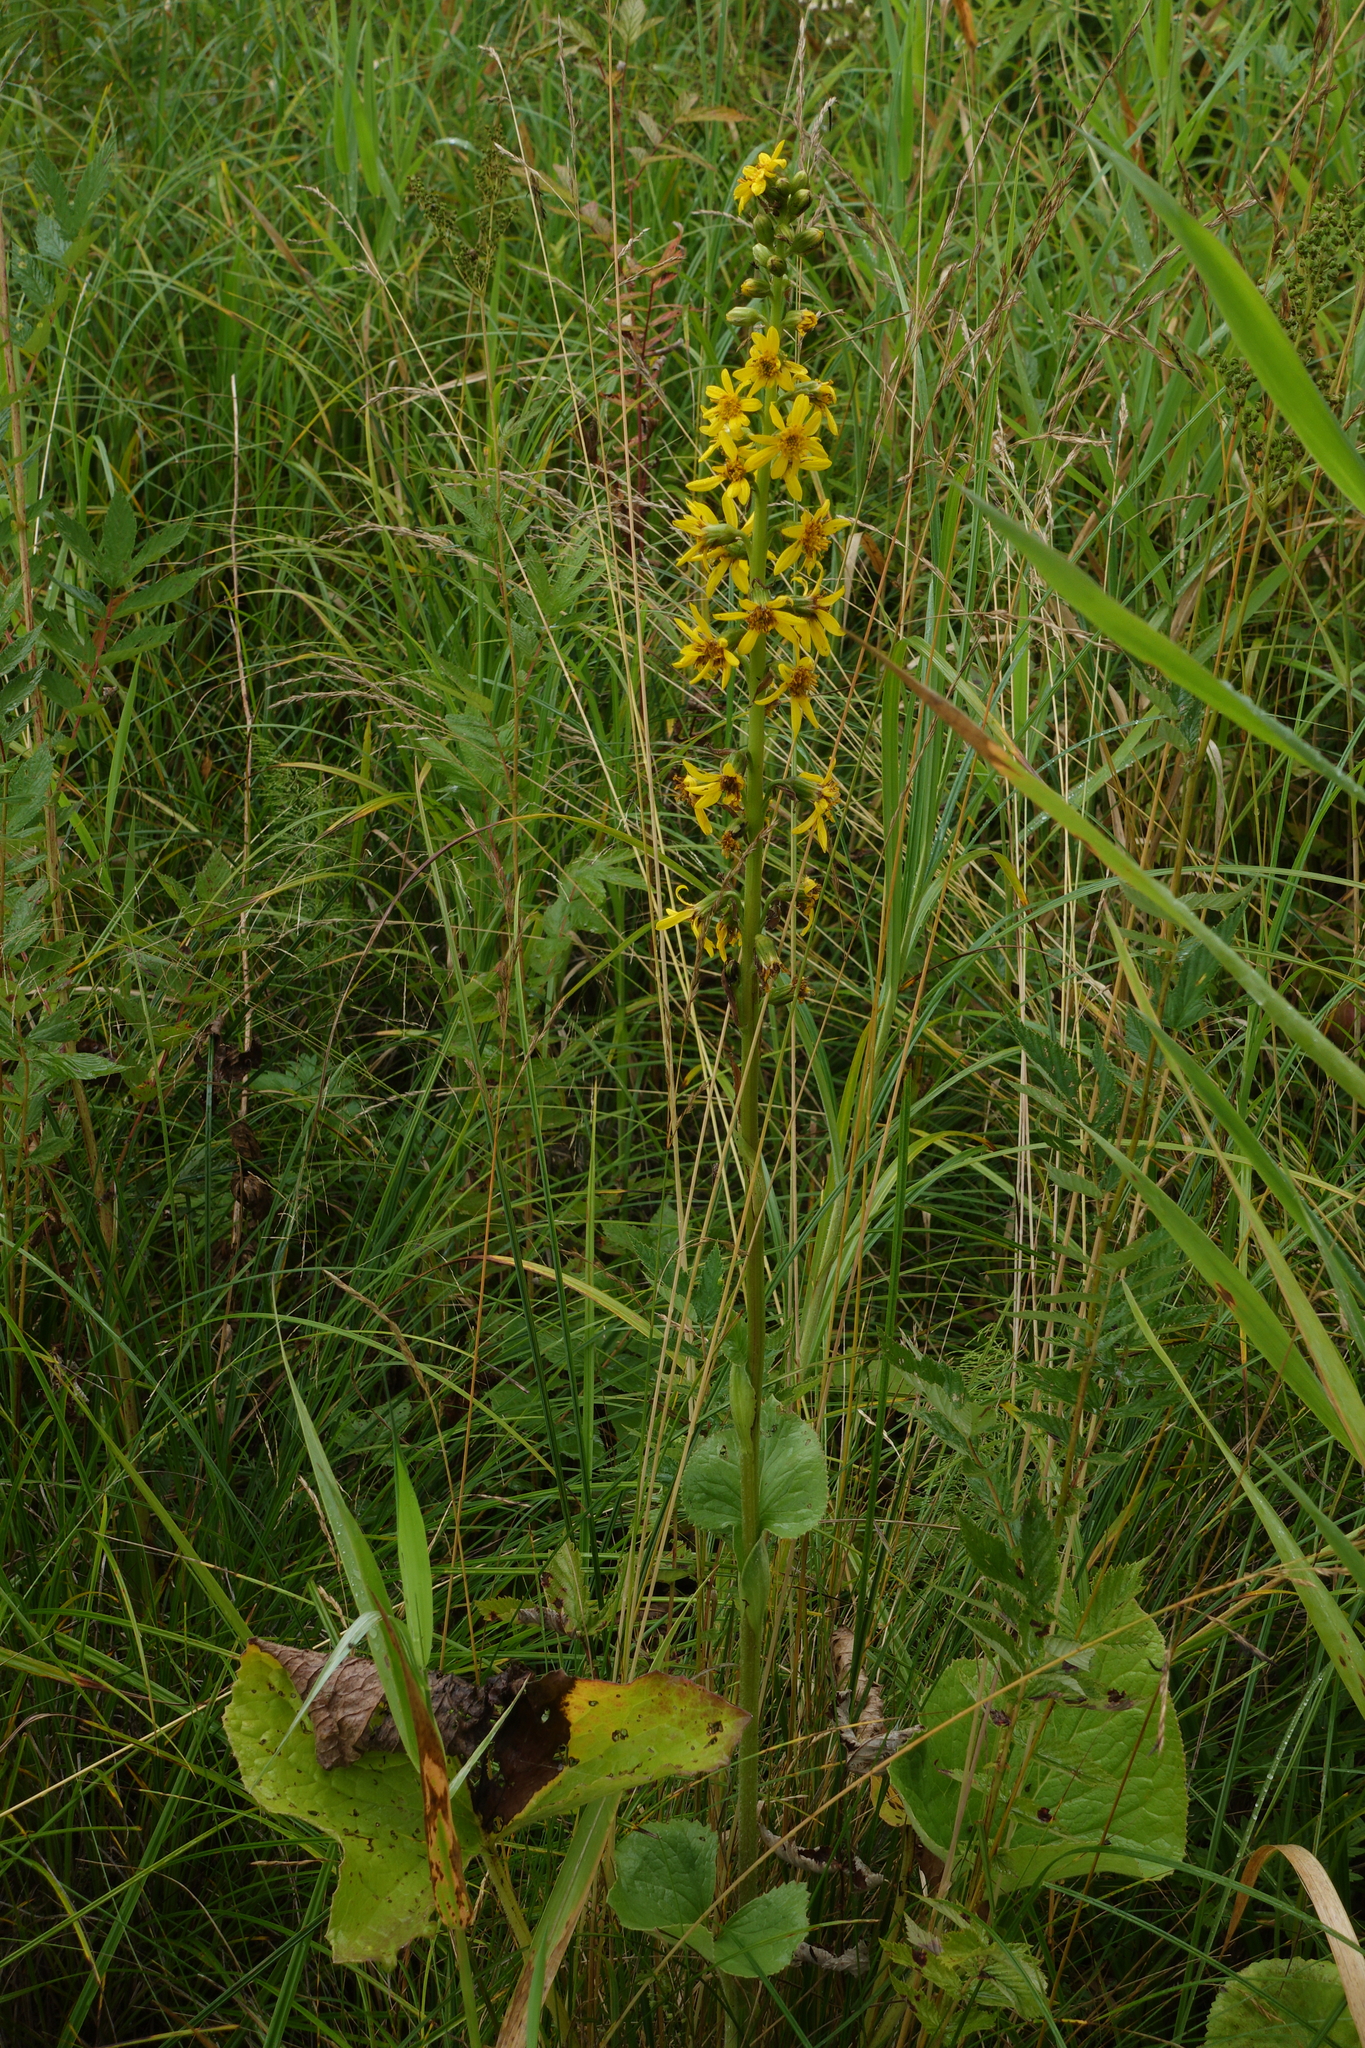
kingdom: Plantae
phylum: Tracheophyta
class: Magnoliopsida
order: Asterales
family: Asteraceae
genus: Ligularia
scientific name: Ligularia sibirica
